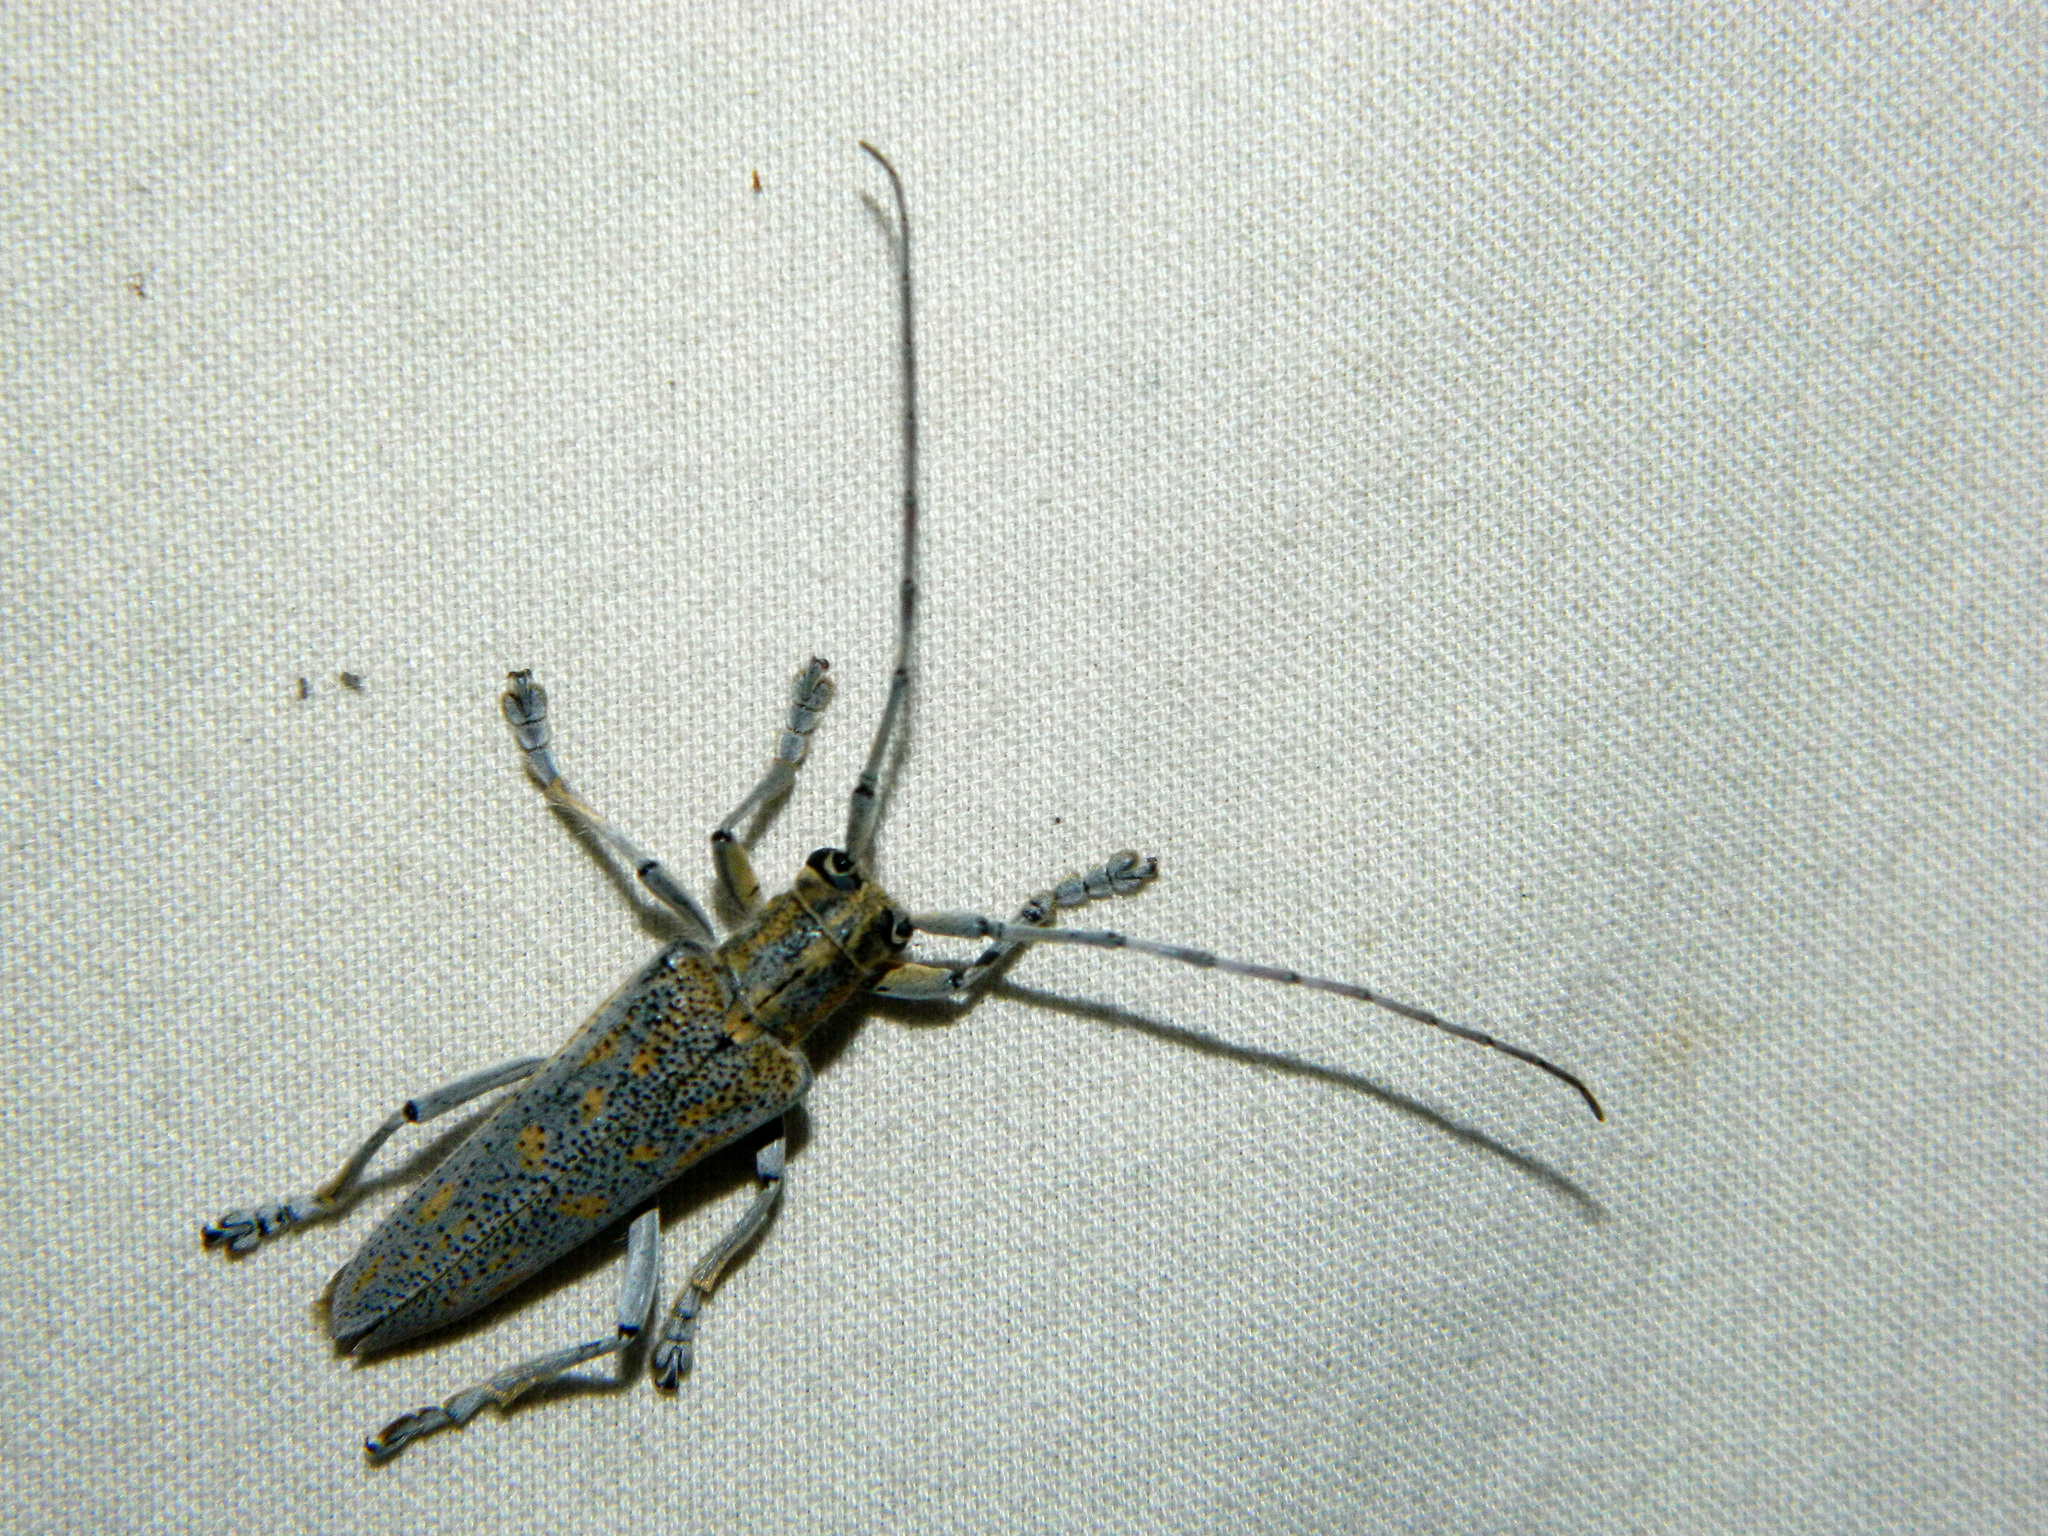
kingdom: Animalia
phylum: Arthropoda
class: Insecta
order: Coleoptera
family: Cerambycidae
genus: Saperda
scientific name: Saperda calcarata
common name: Poplar borer
